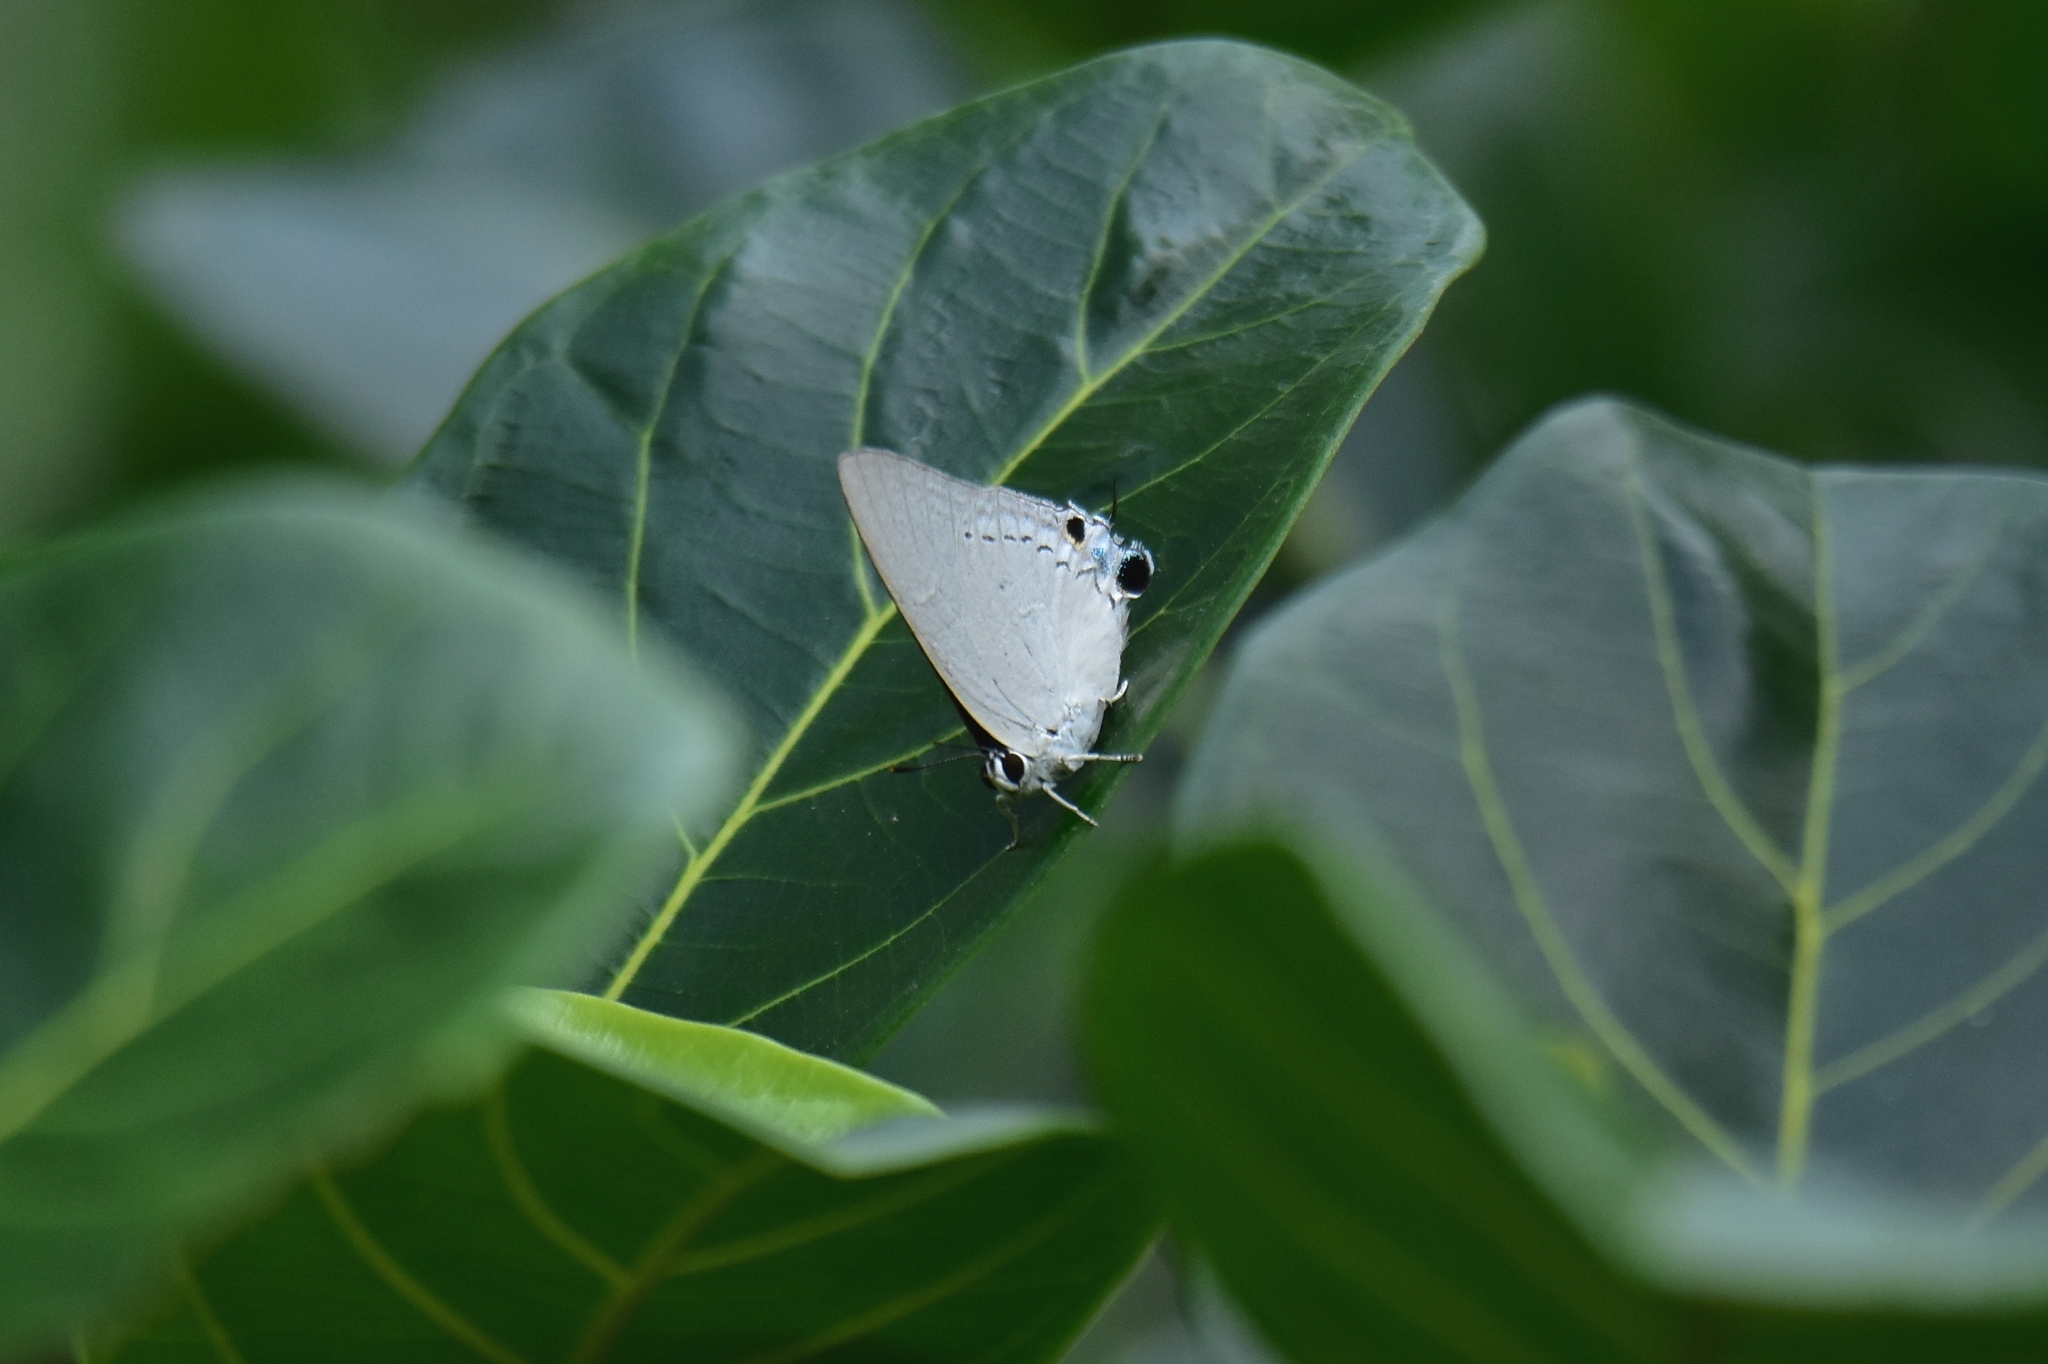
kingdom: Animalia
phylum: Arthropoda
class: Insecta
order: Lepidoptera
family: Lycaenidae
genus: Tajuria
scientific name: Tajuria cippus
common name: Peacock royal
